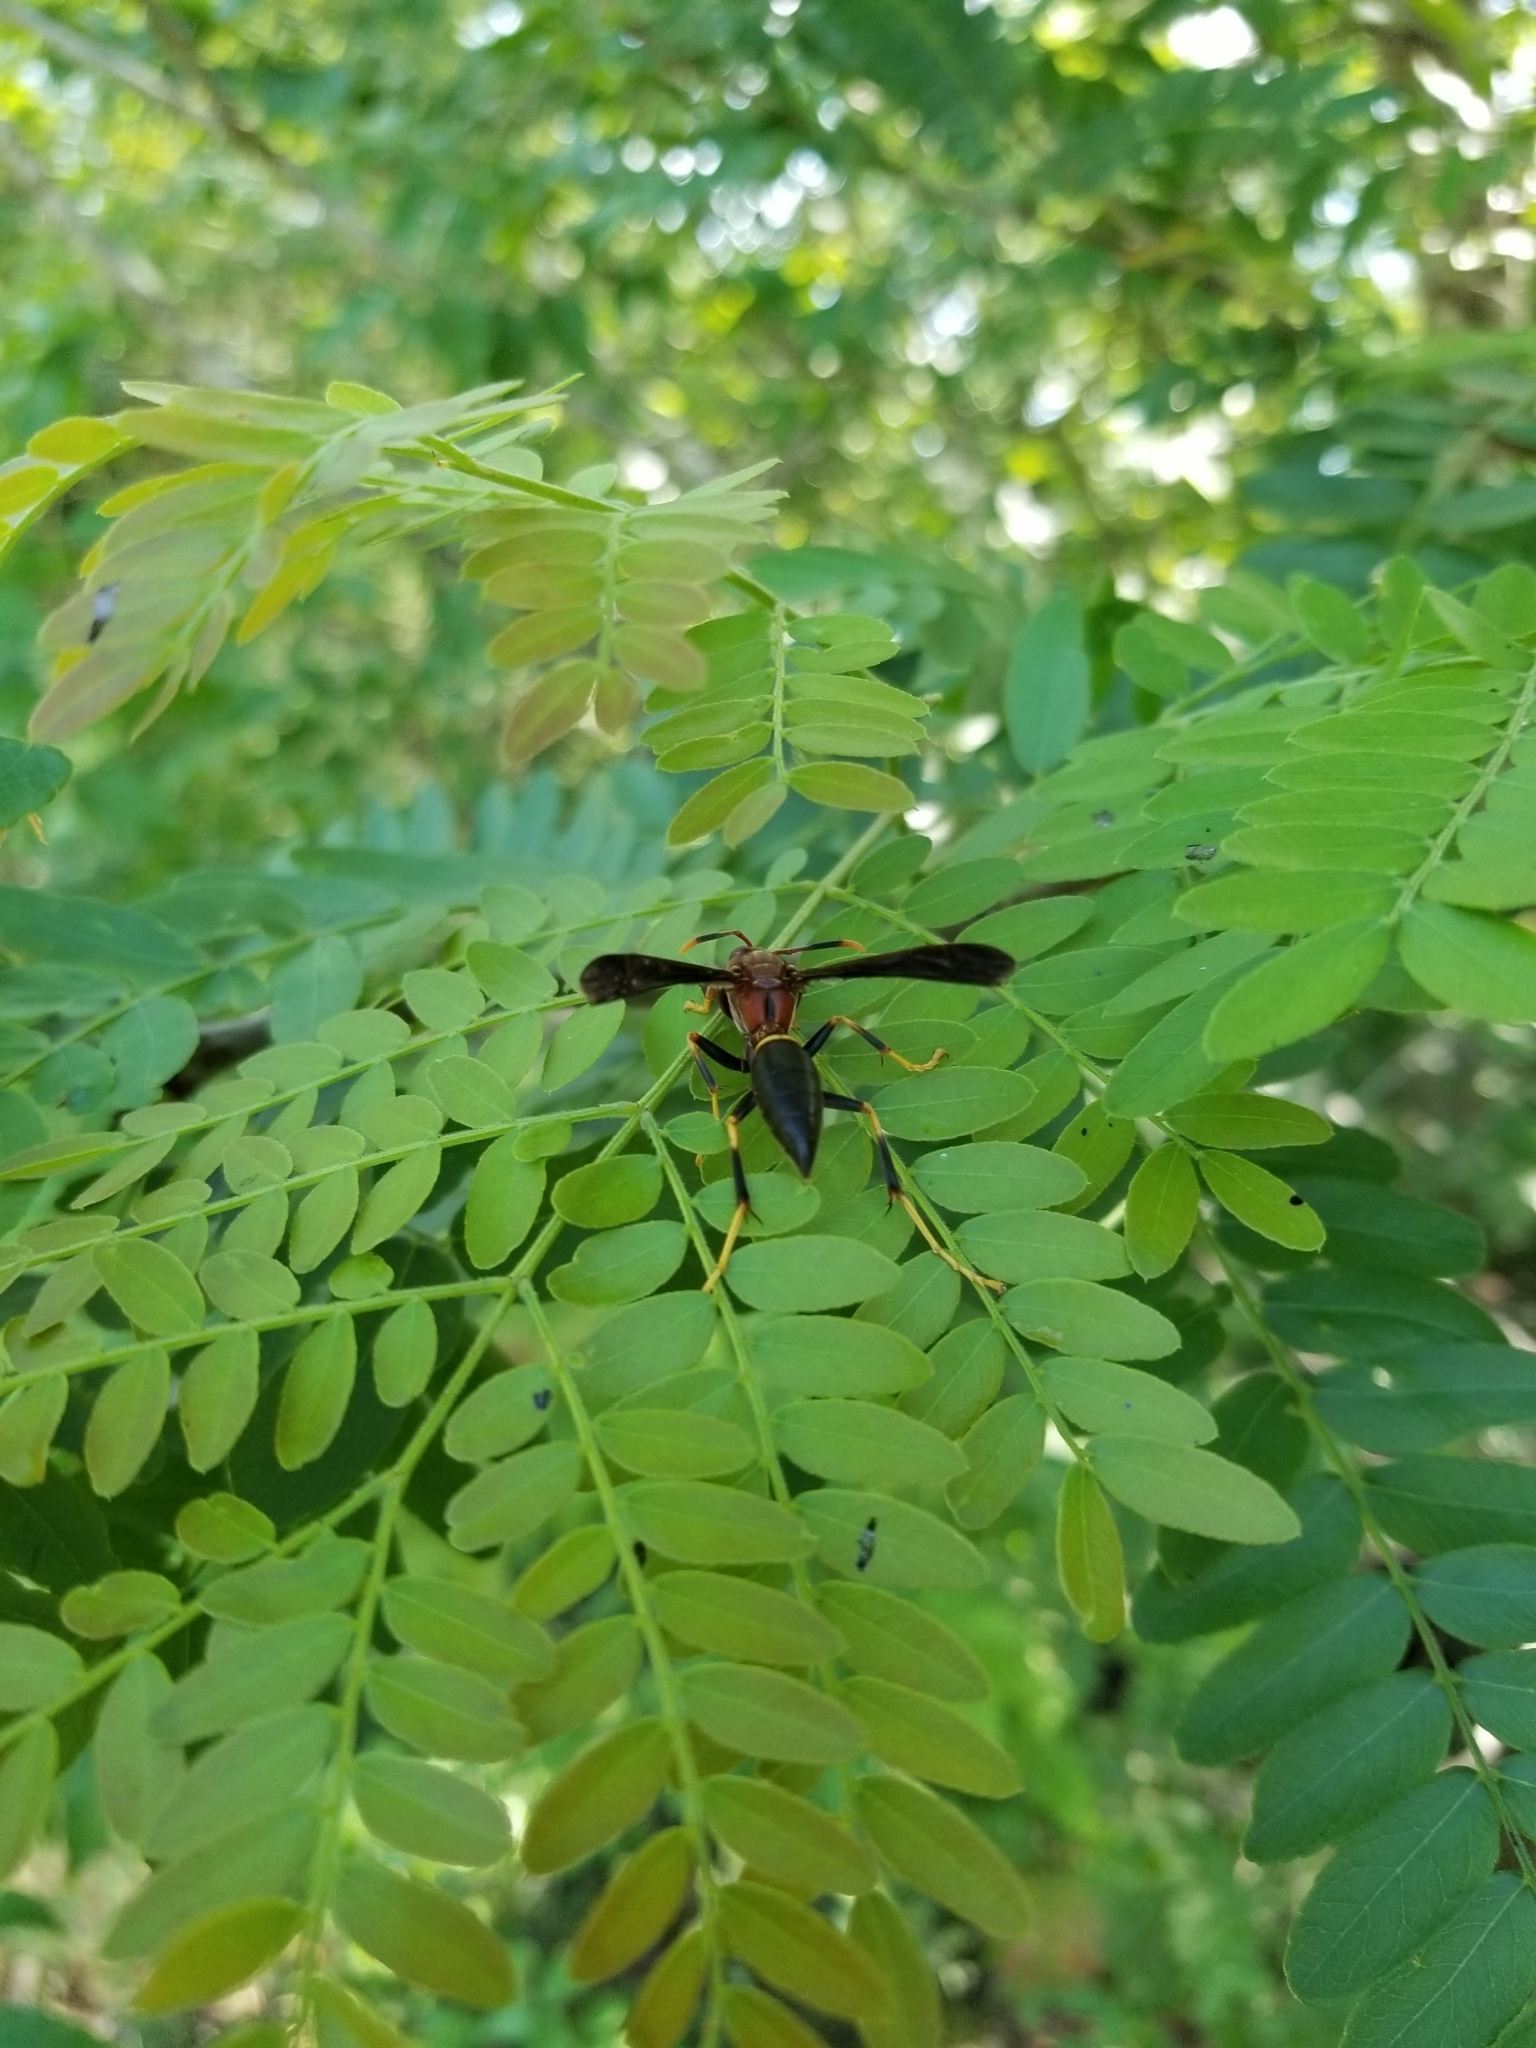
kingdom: Animalia
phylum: Arthropoda
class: Insecta
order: Hymenoptera
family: Eumenidae
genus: Polistes
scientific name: Polistes annularis
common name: Ringed paper wasp
